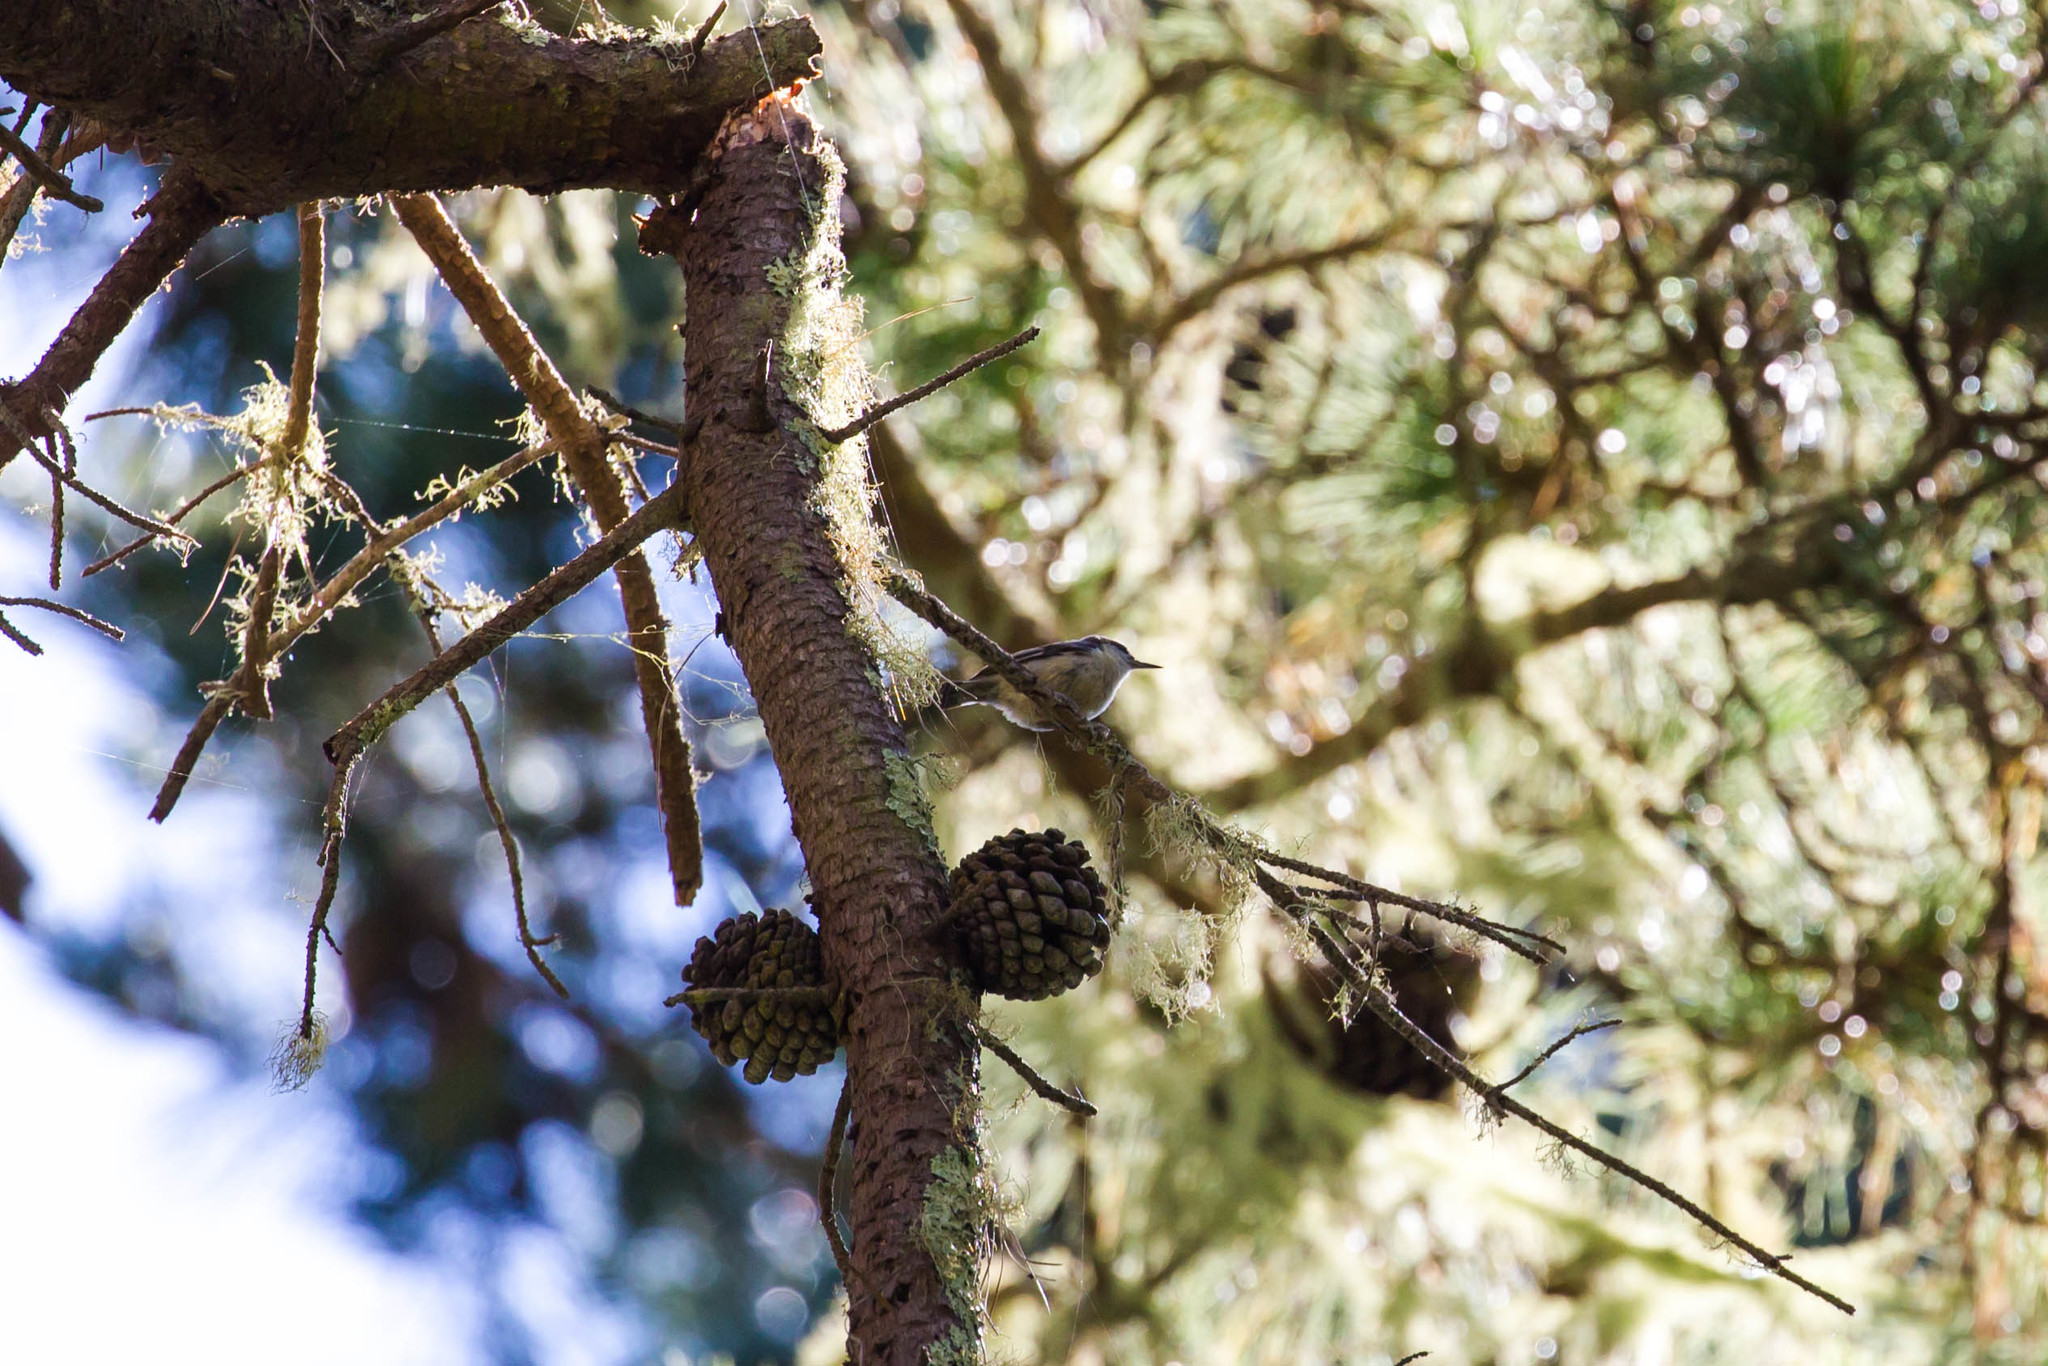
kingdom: Animalia
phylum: Chordata
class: Aves
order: Passeriformes
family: Sittidae
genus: Sitta
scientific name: Sitta pygmaea
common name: Pygmy nuthatch
